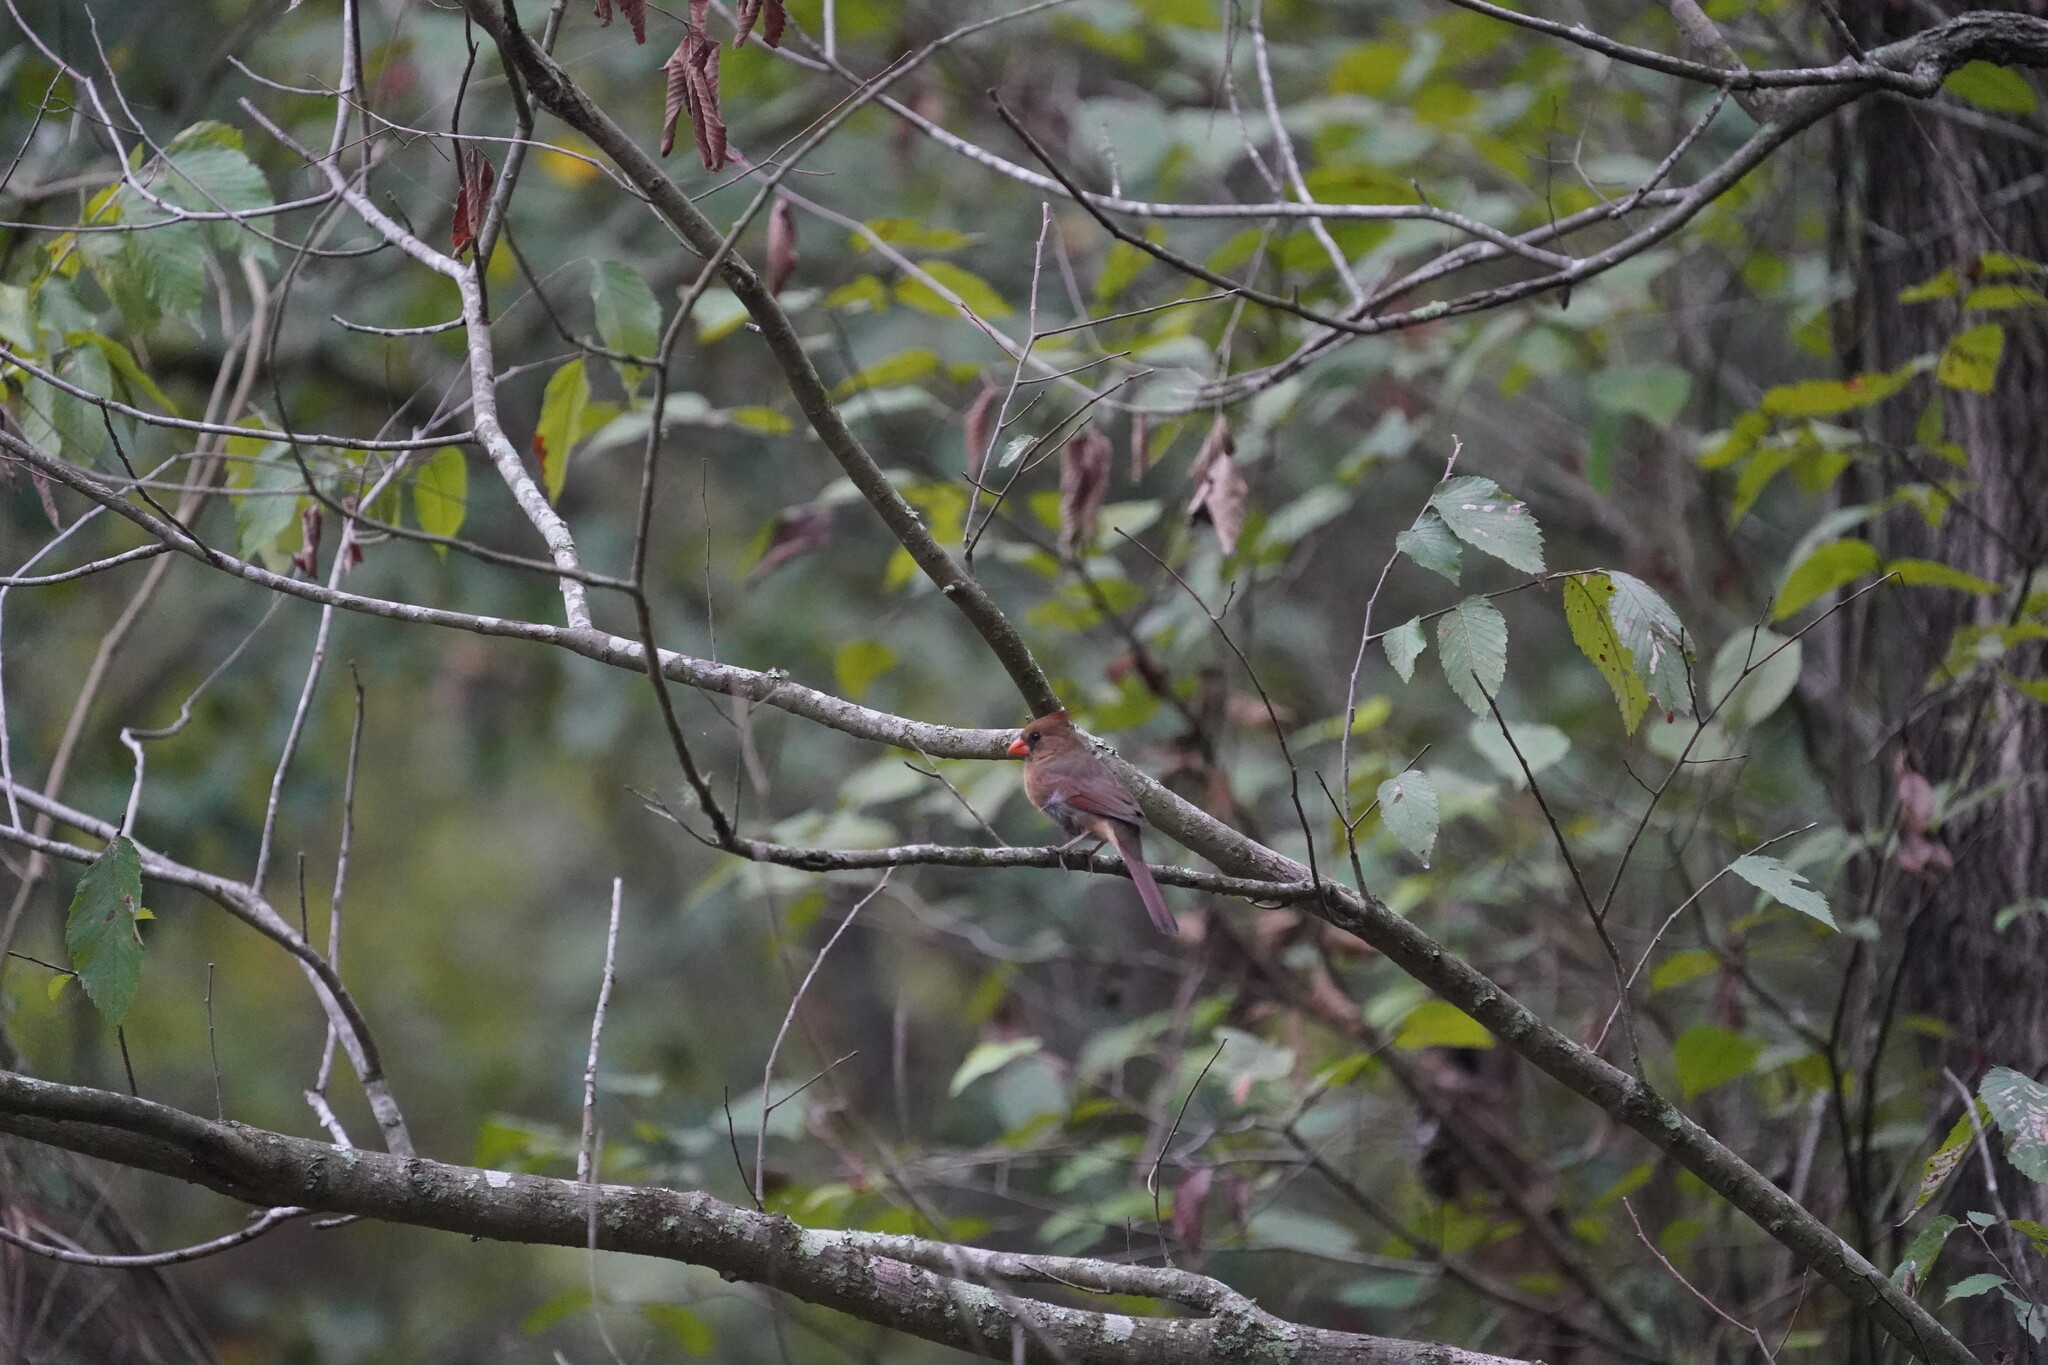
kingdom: Animalia
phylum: Chordata
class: Aves
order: Passeriformes
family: Cardinalidae
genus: Cardinalis
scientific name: Cardinalis cardinalis
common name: Northern cardinal
